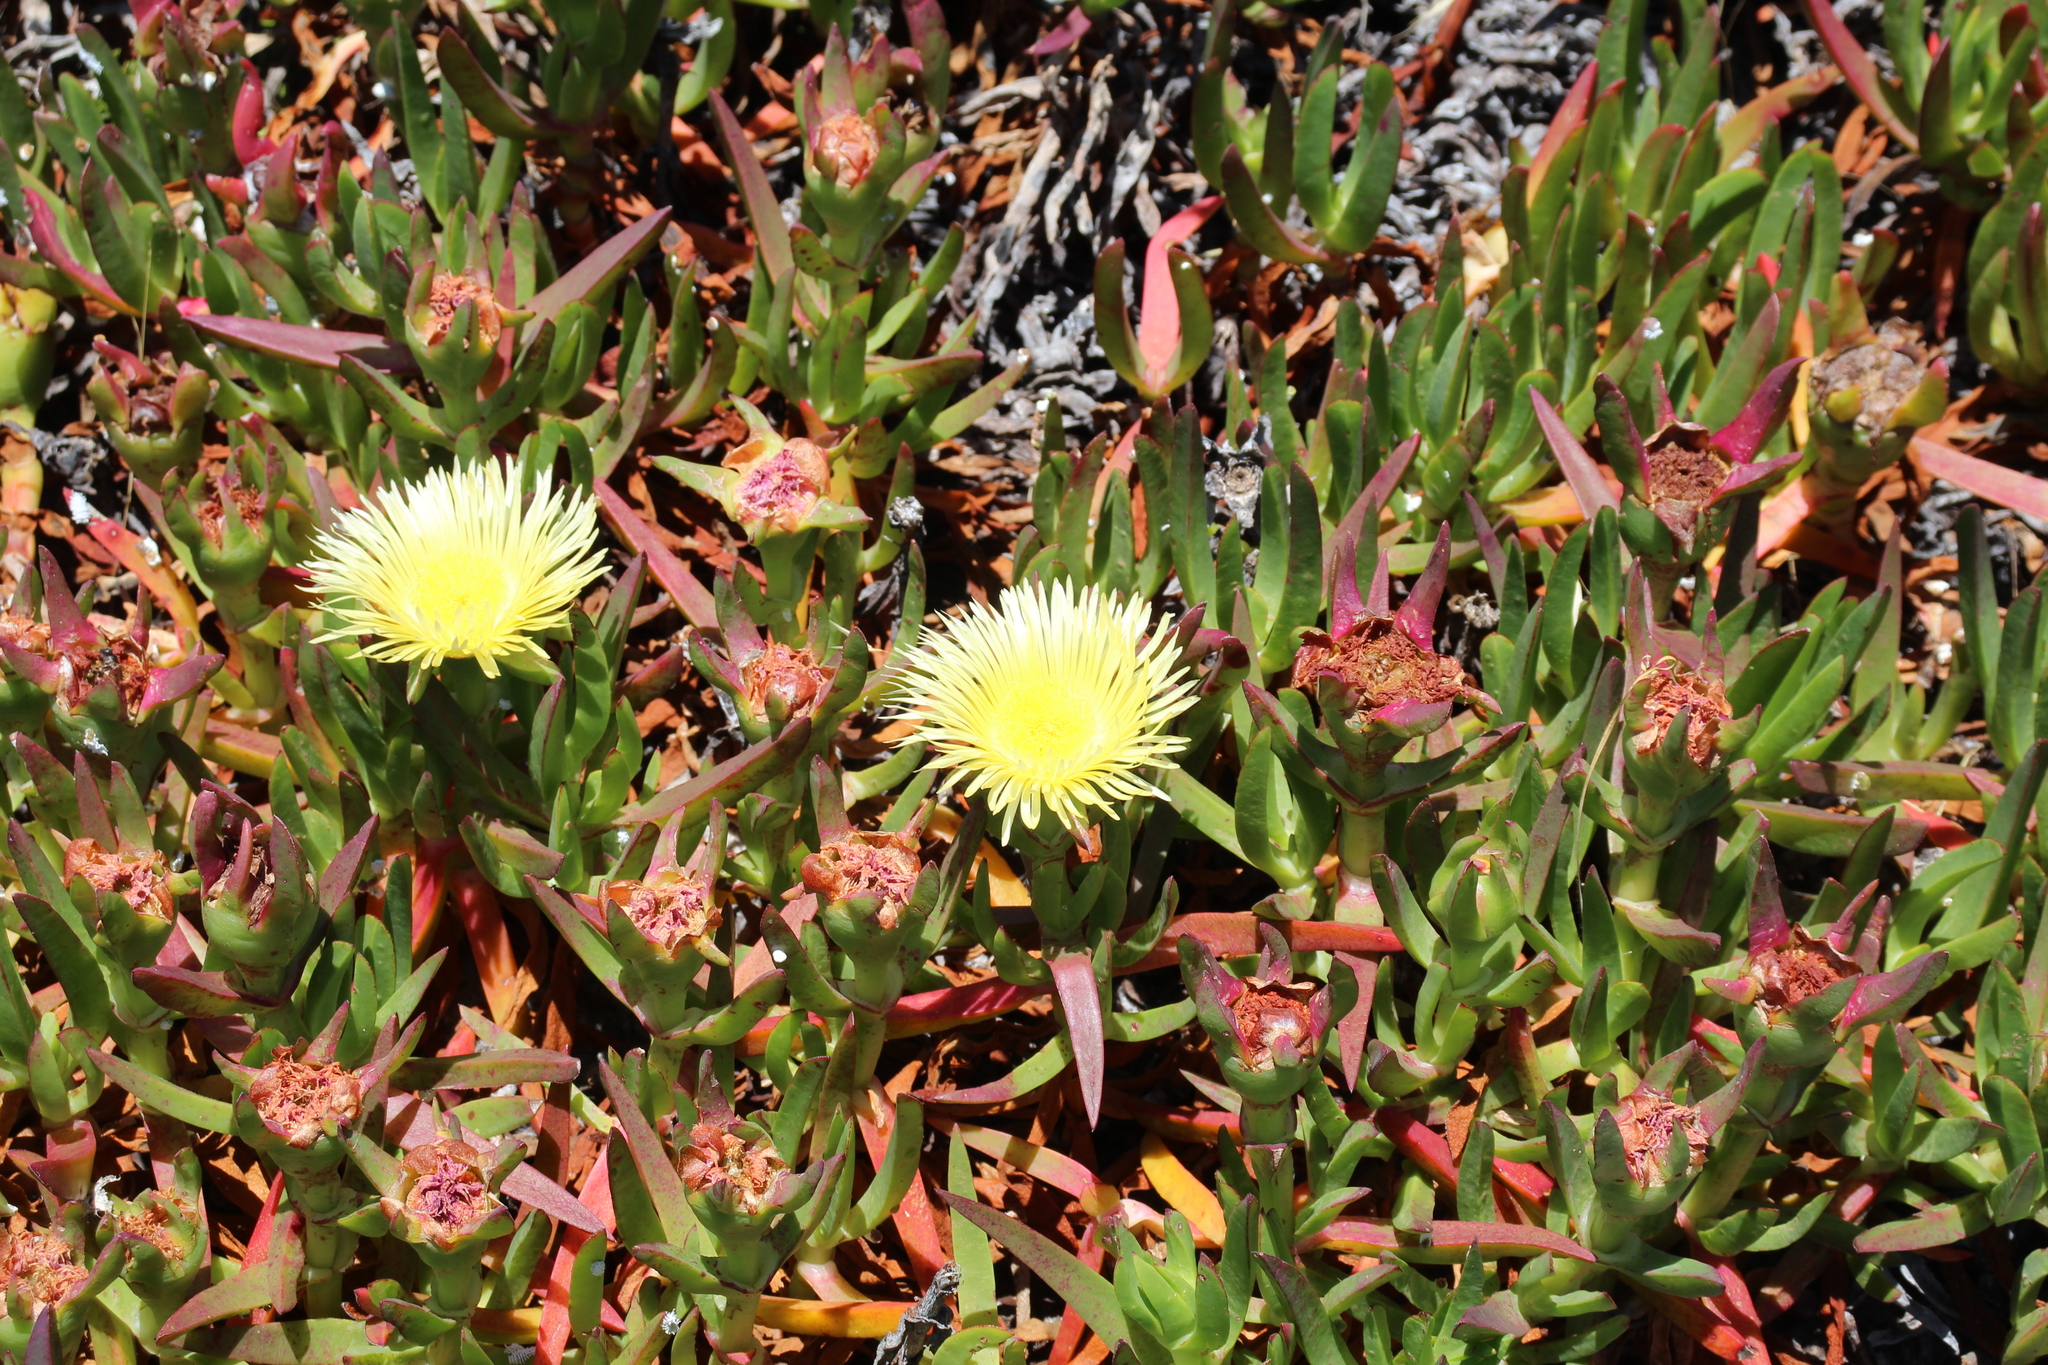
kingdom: Plantae
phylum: Tracheophyta
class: Magnoliopsida
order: Caryophyllales
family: Aizoaceae
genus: Carpobrotus
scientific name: Carpobrotus edulis
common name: Hottentot-fig
